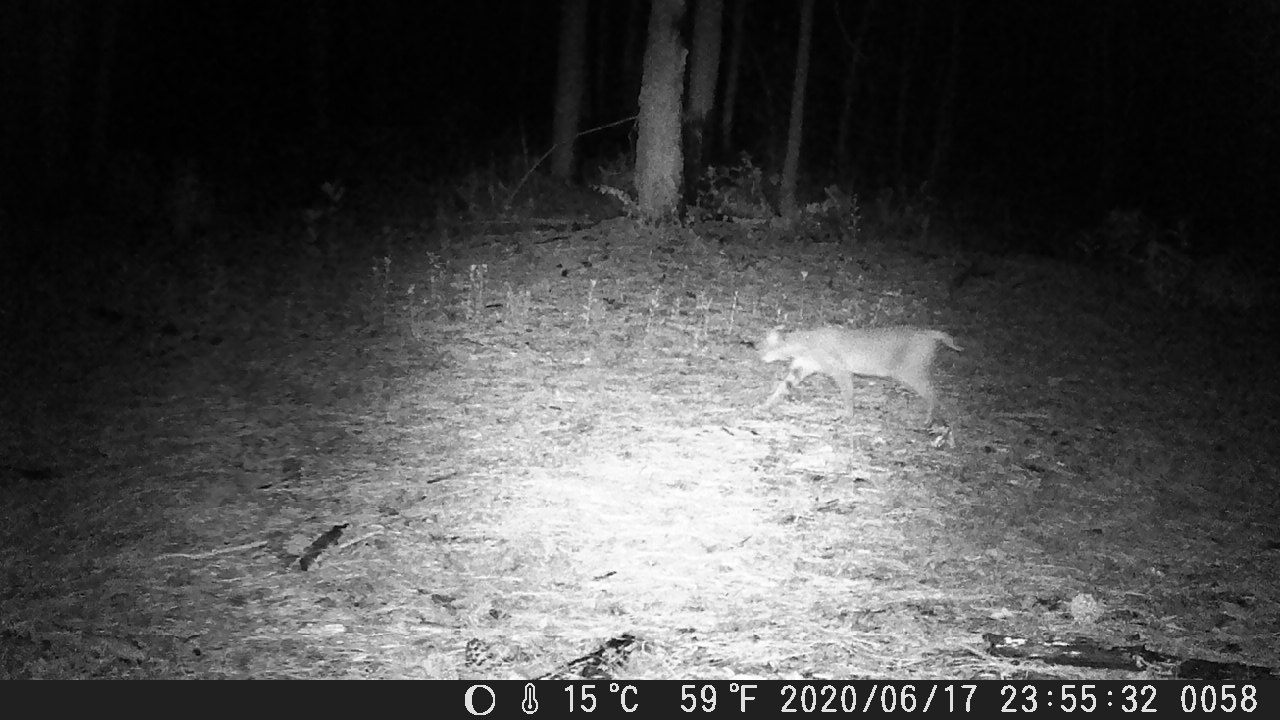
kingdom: Animalia
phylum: Chordata
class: Mammalia
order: Carnivora
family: Felidae
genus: Lynx
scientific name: Lynx rufus
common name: Bobcat
